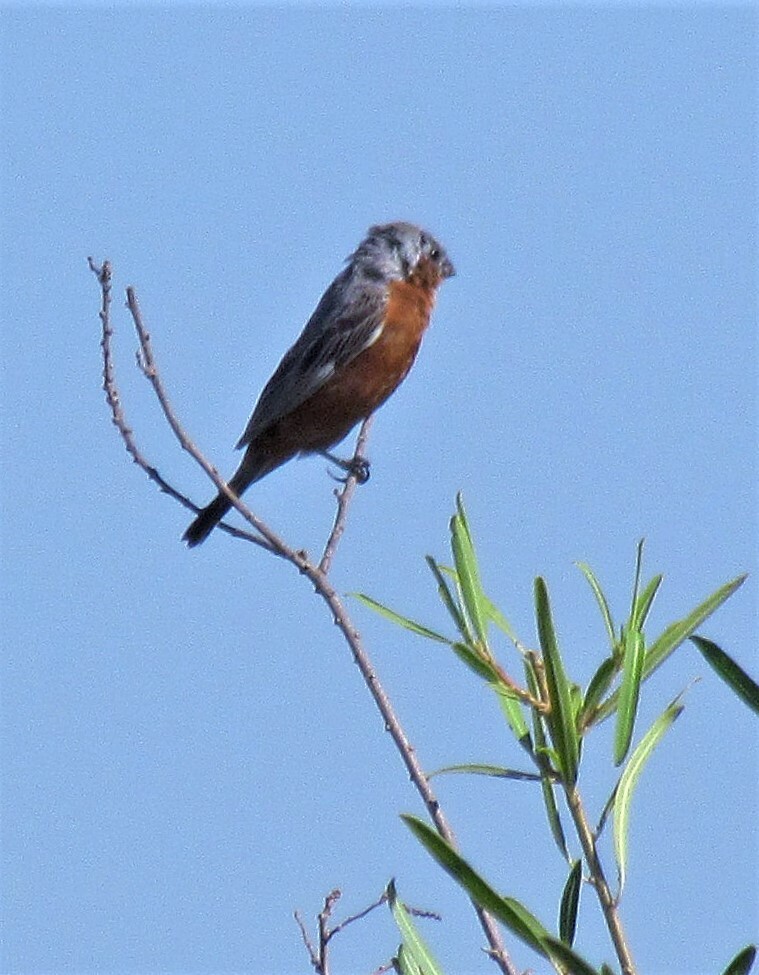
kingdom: Animalia
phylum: Chordata
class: Aves
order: Passeriformes
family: Thraupidae
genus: Sporophila
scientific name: Sporophila hypochroma
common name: Rufous-rumped seedeater
